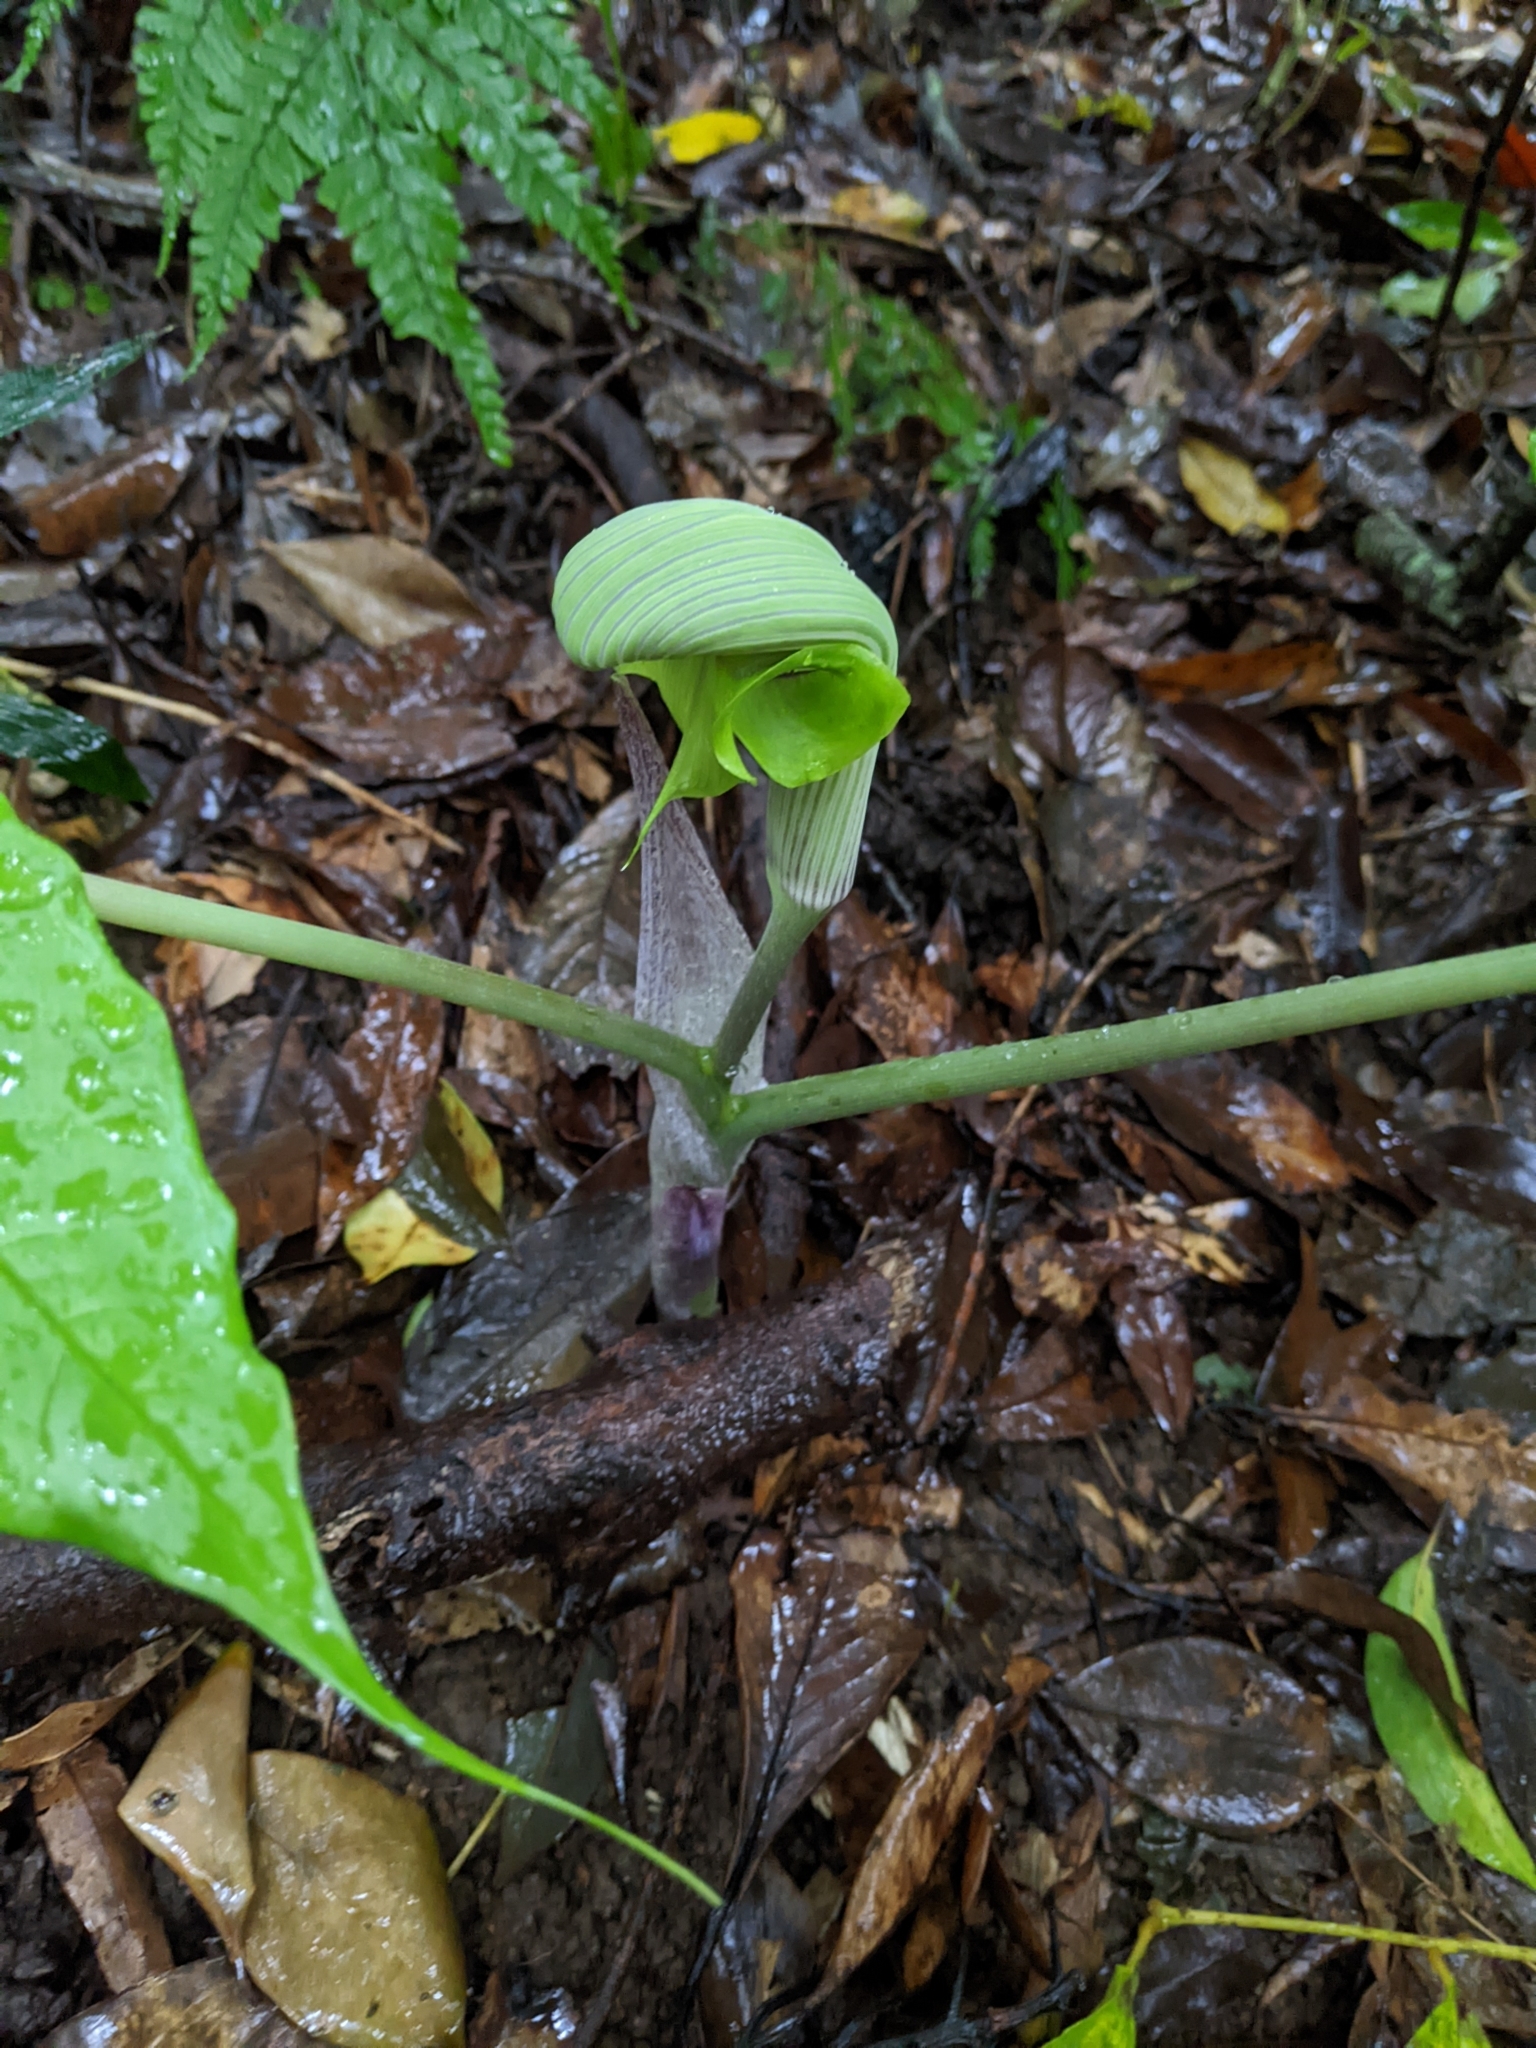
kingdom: Plantae
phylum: Tracheophyta
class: Liliopsida
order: Alismatales
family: Araceae
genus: Arisaema
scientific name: Arisaema ringens
